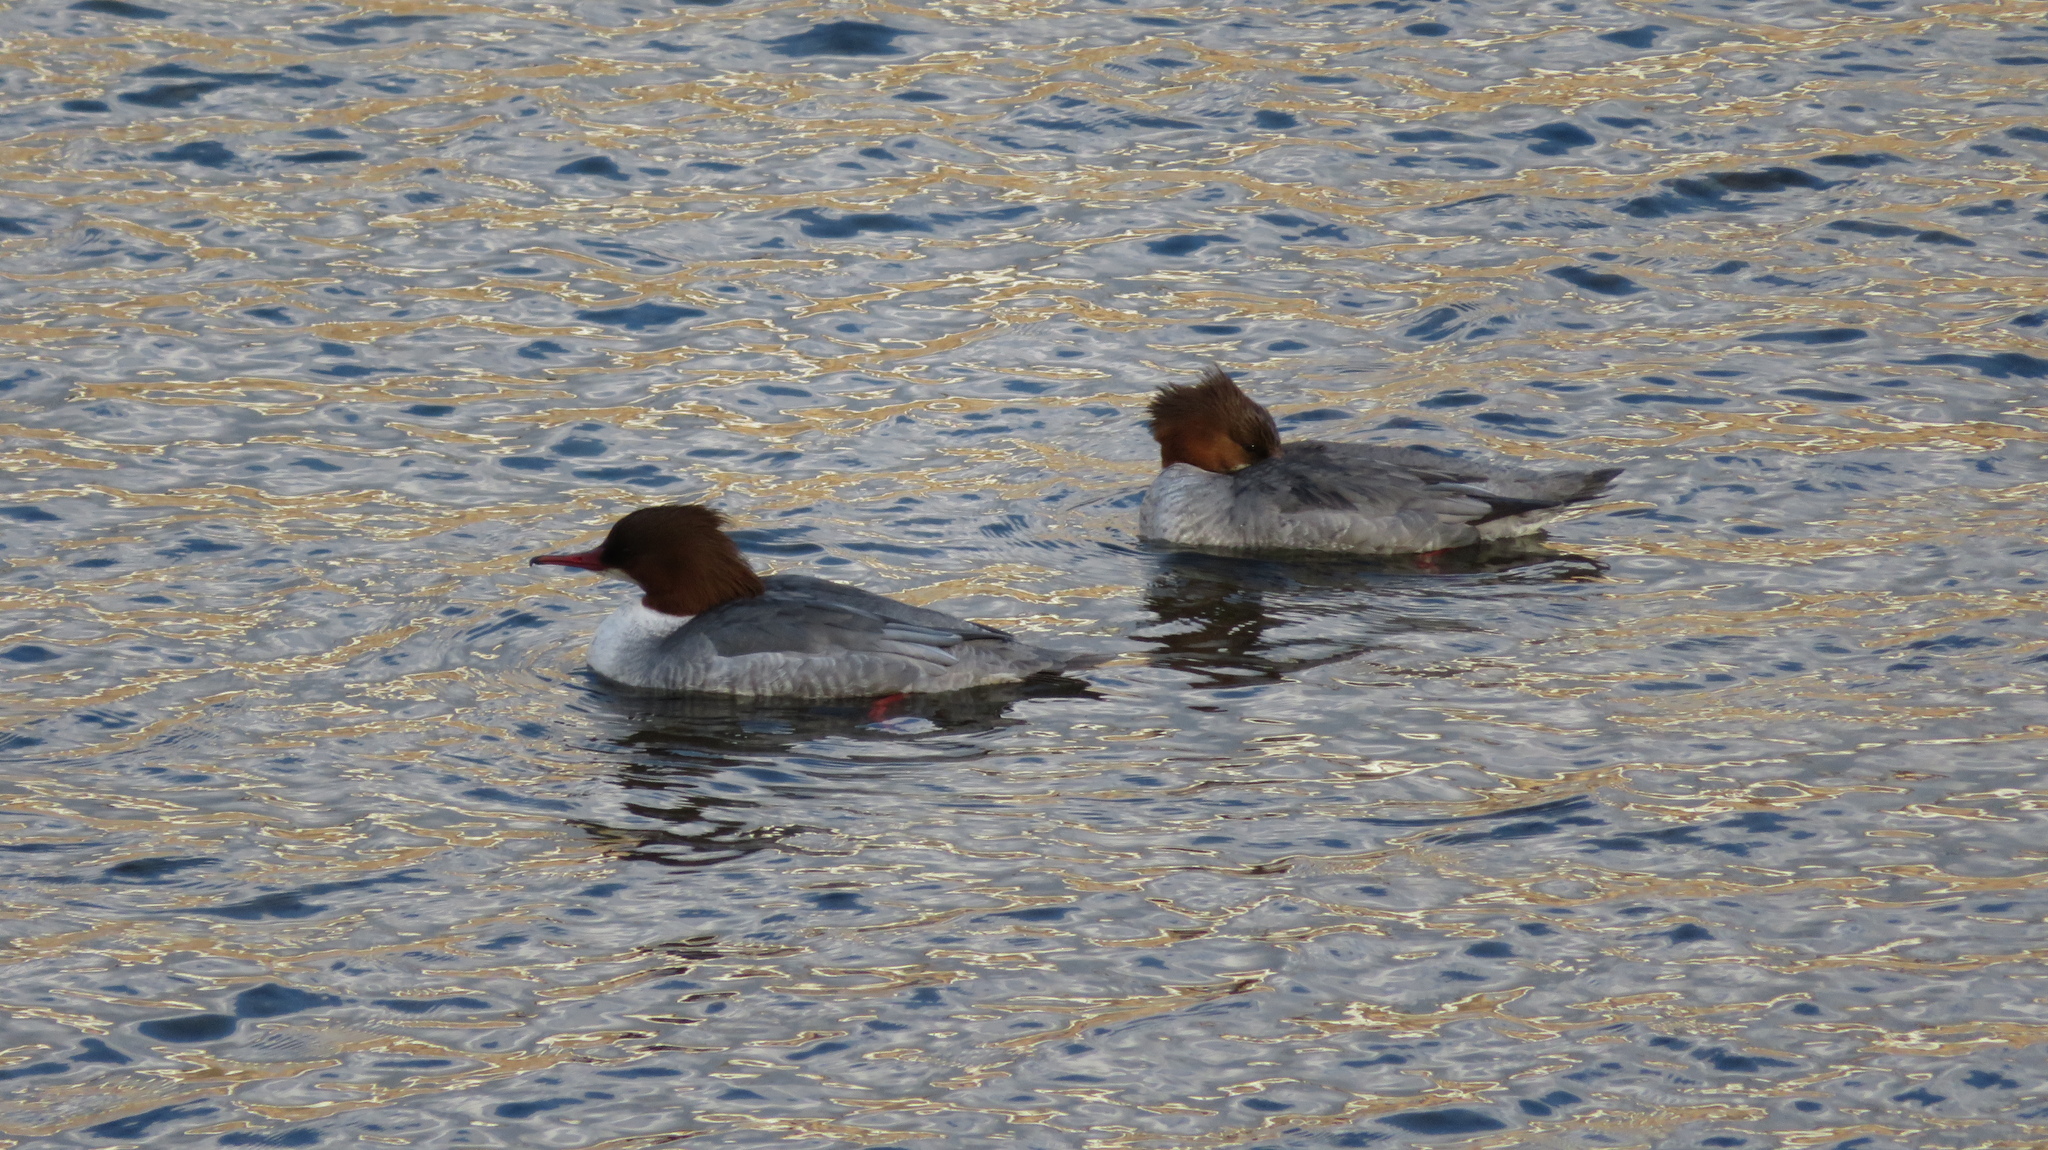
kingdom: Animalia
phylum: Chordata
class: Aves
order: Anseriformes
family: Anatidae
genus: Mergus
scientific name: Mergus merganser
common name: Common merganser
